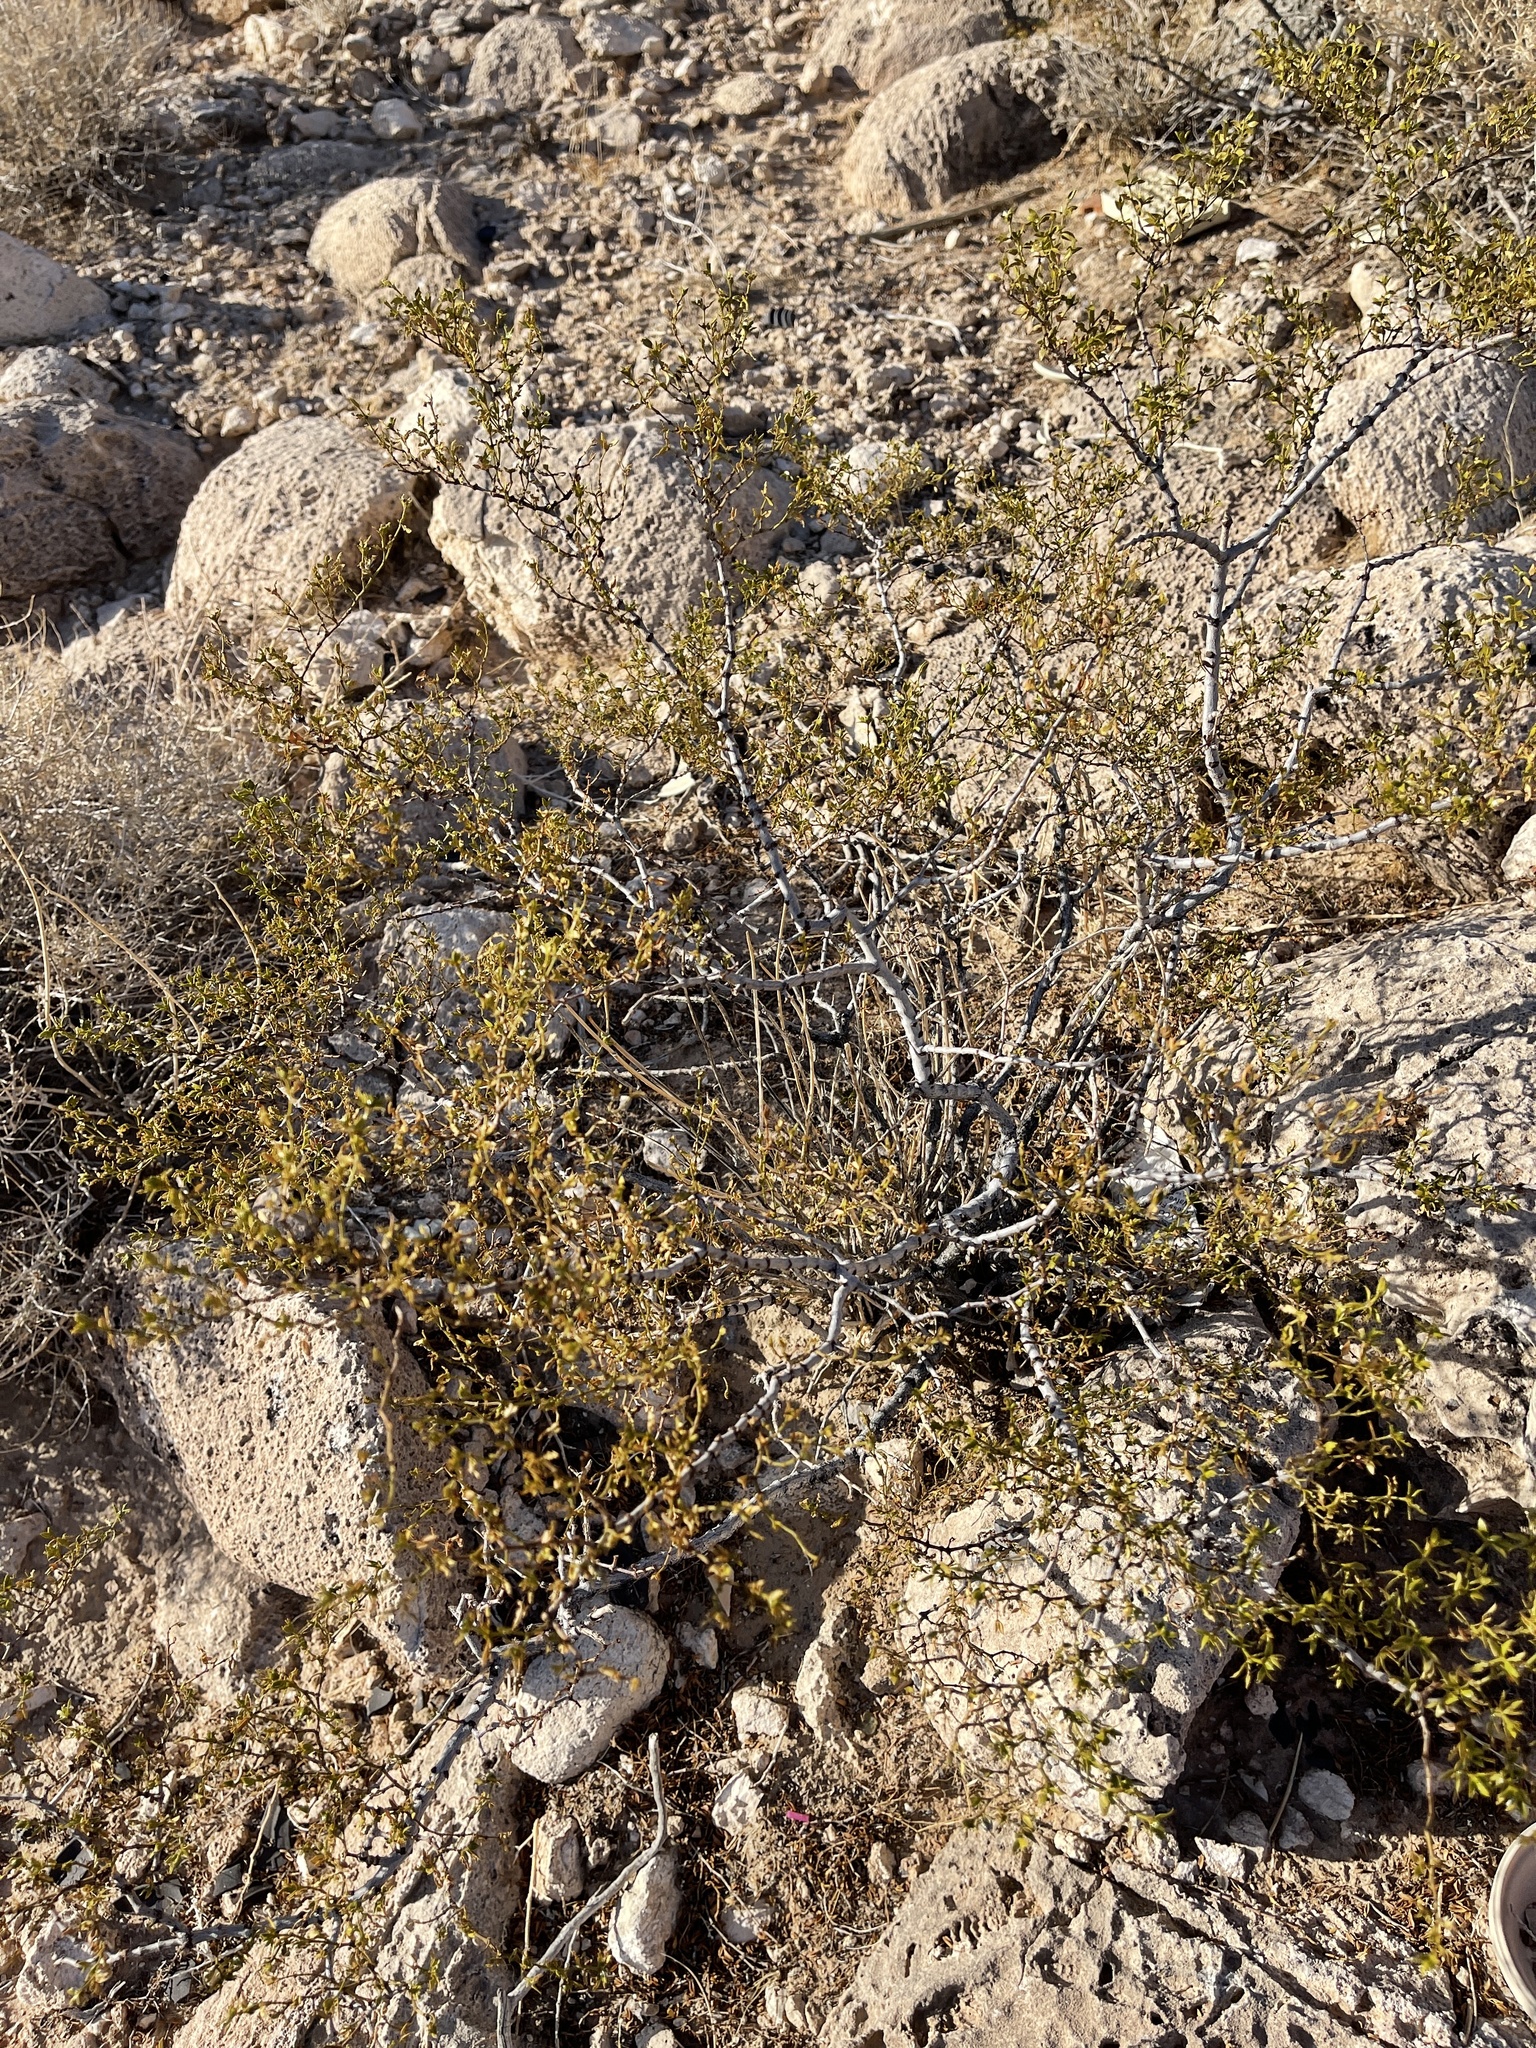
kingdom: Plantae
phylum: Tracheophyta
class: Magnoliopsida
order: Zygophyllales
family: Zygophyllaceae
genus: Larrea
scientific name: Larrea tridentata
